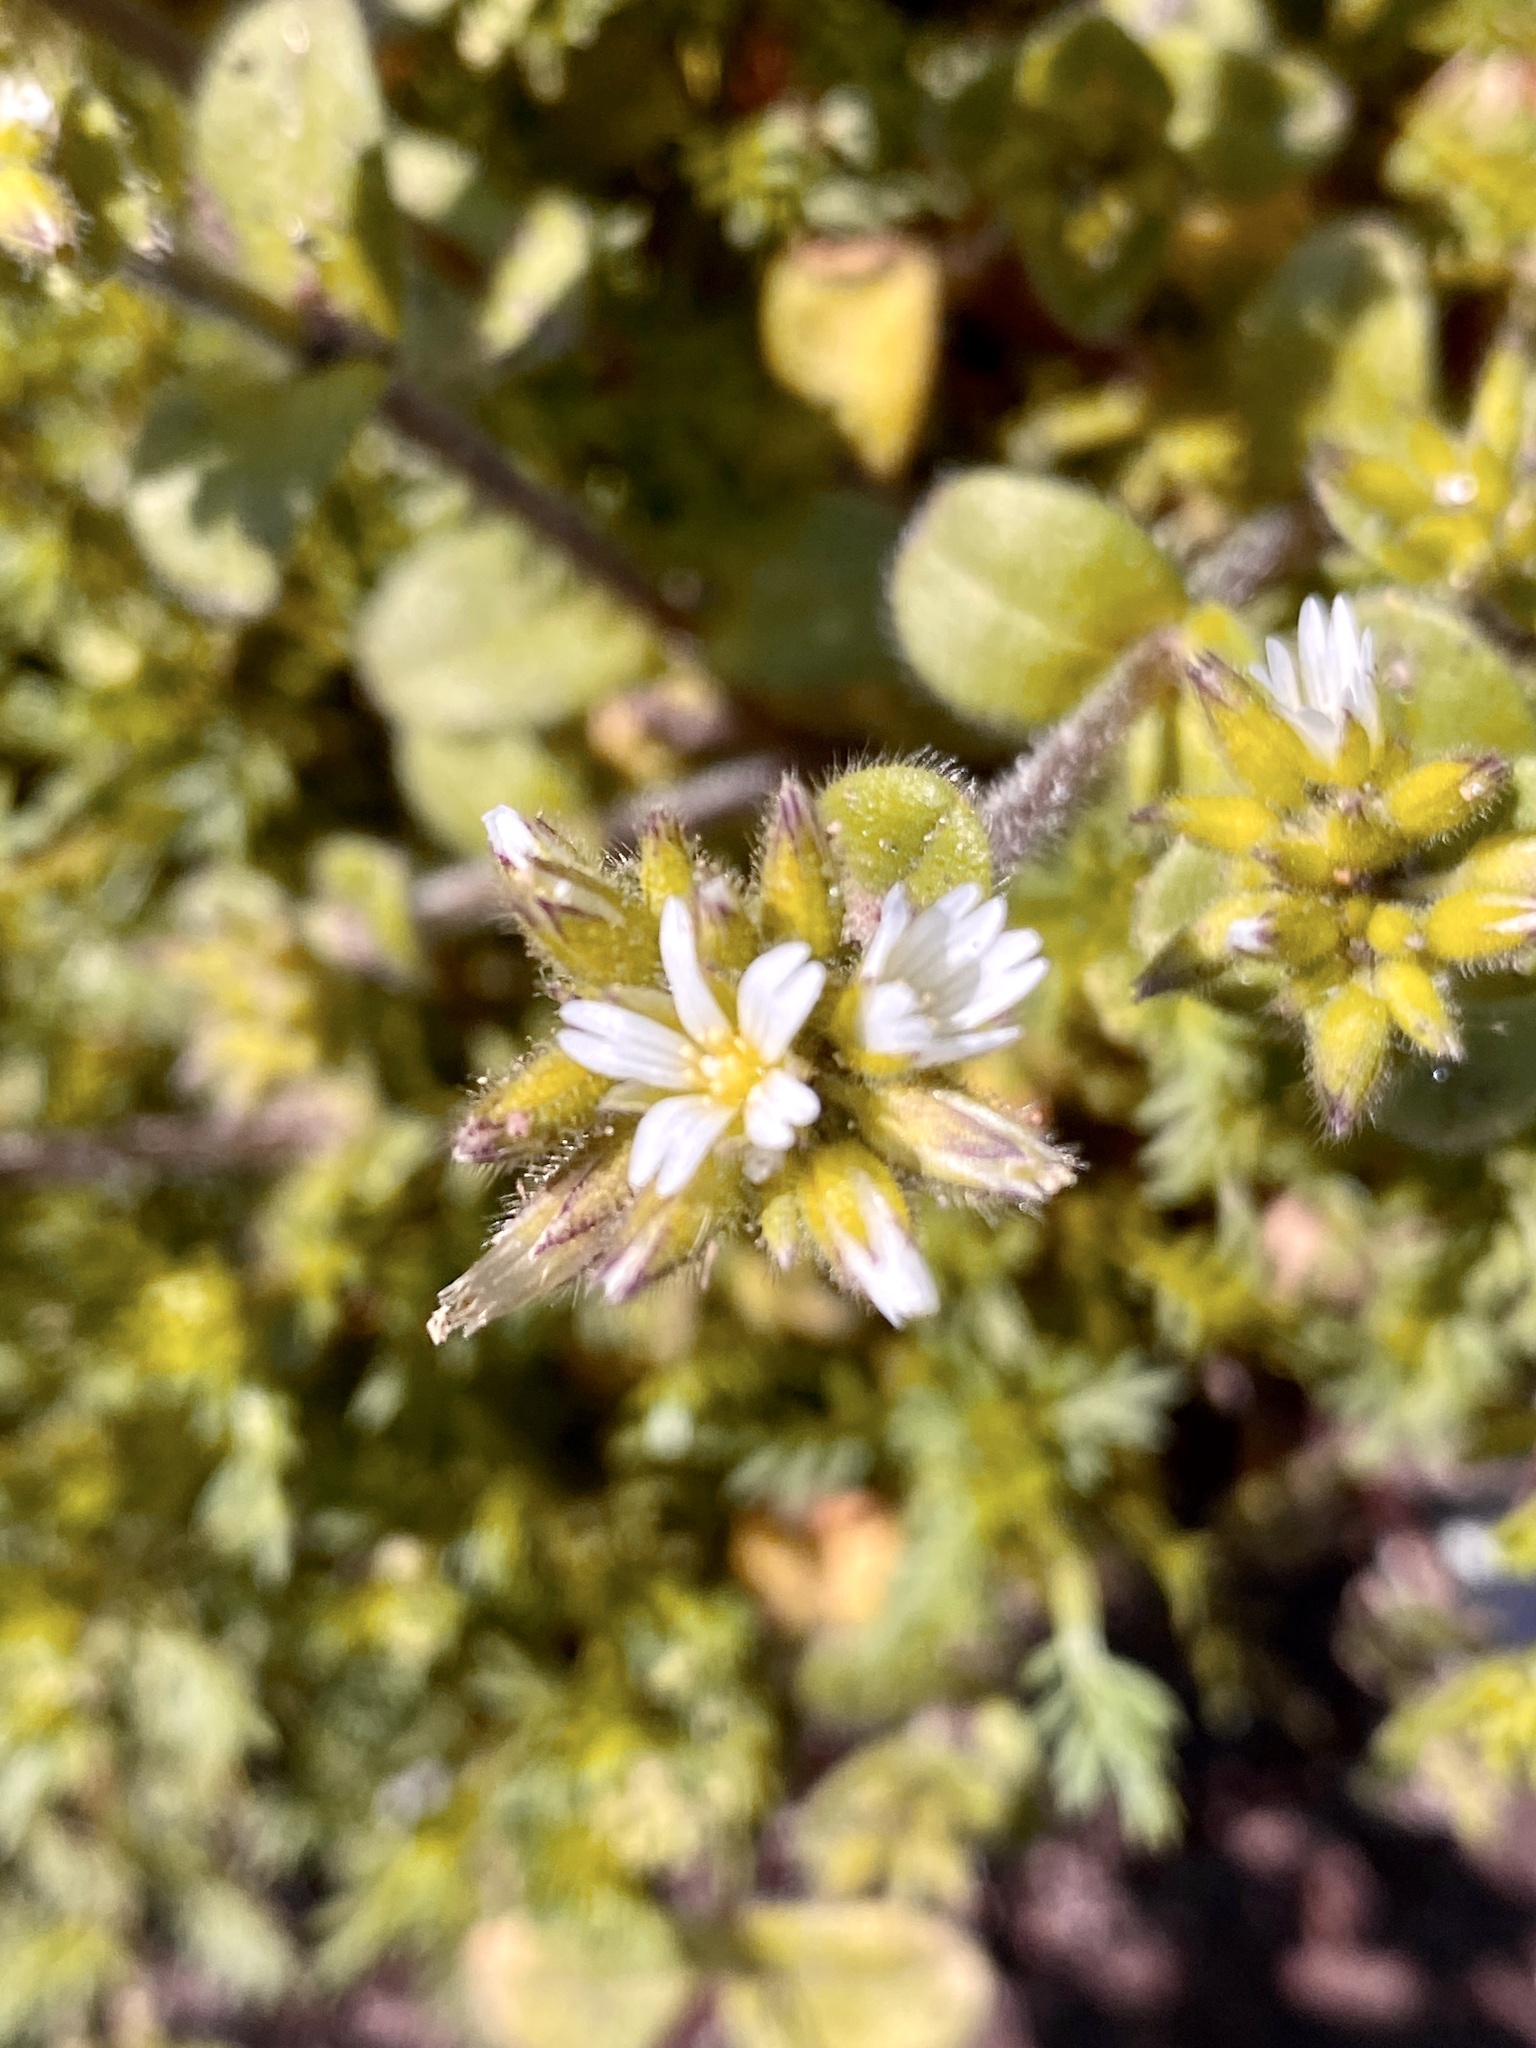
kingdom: Plantae
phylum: Tracheophyta
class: Magnoliopsida
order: Caryophyllales
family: Caryophyllaceae
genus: Cerastium
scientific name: Cerastium glomeratum
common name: Sticky chickweed
